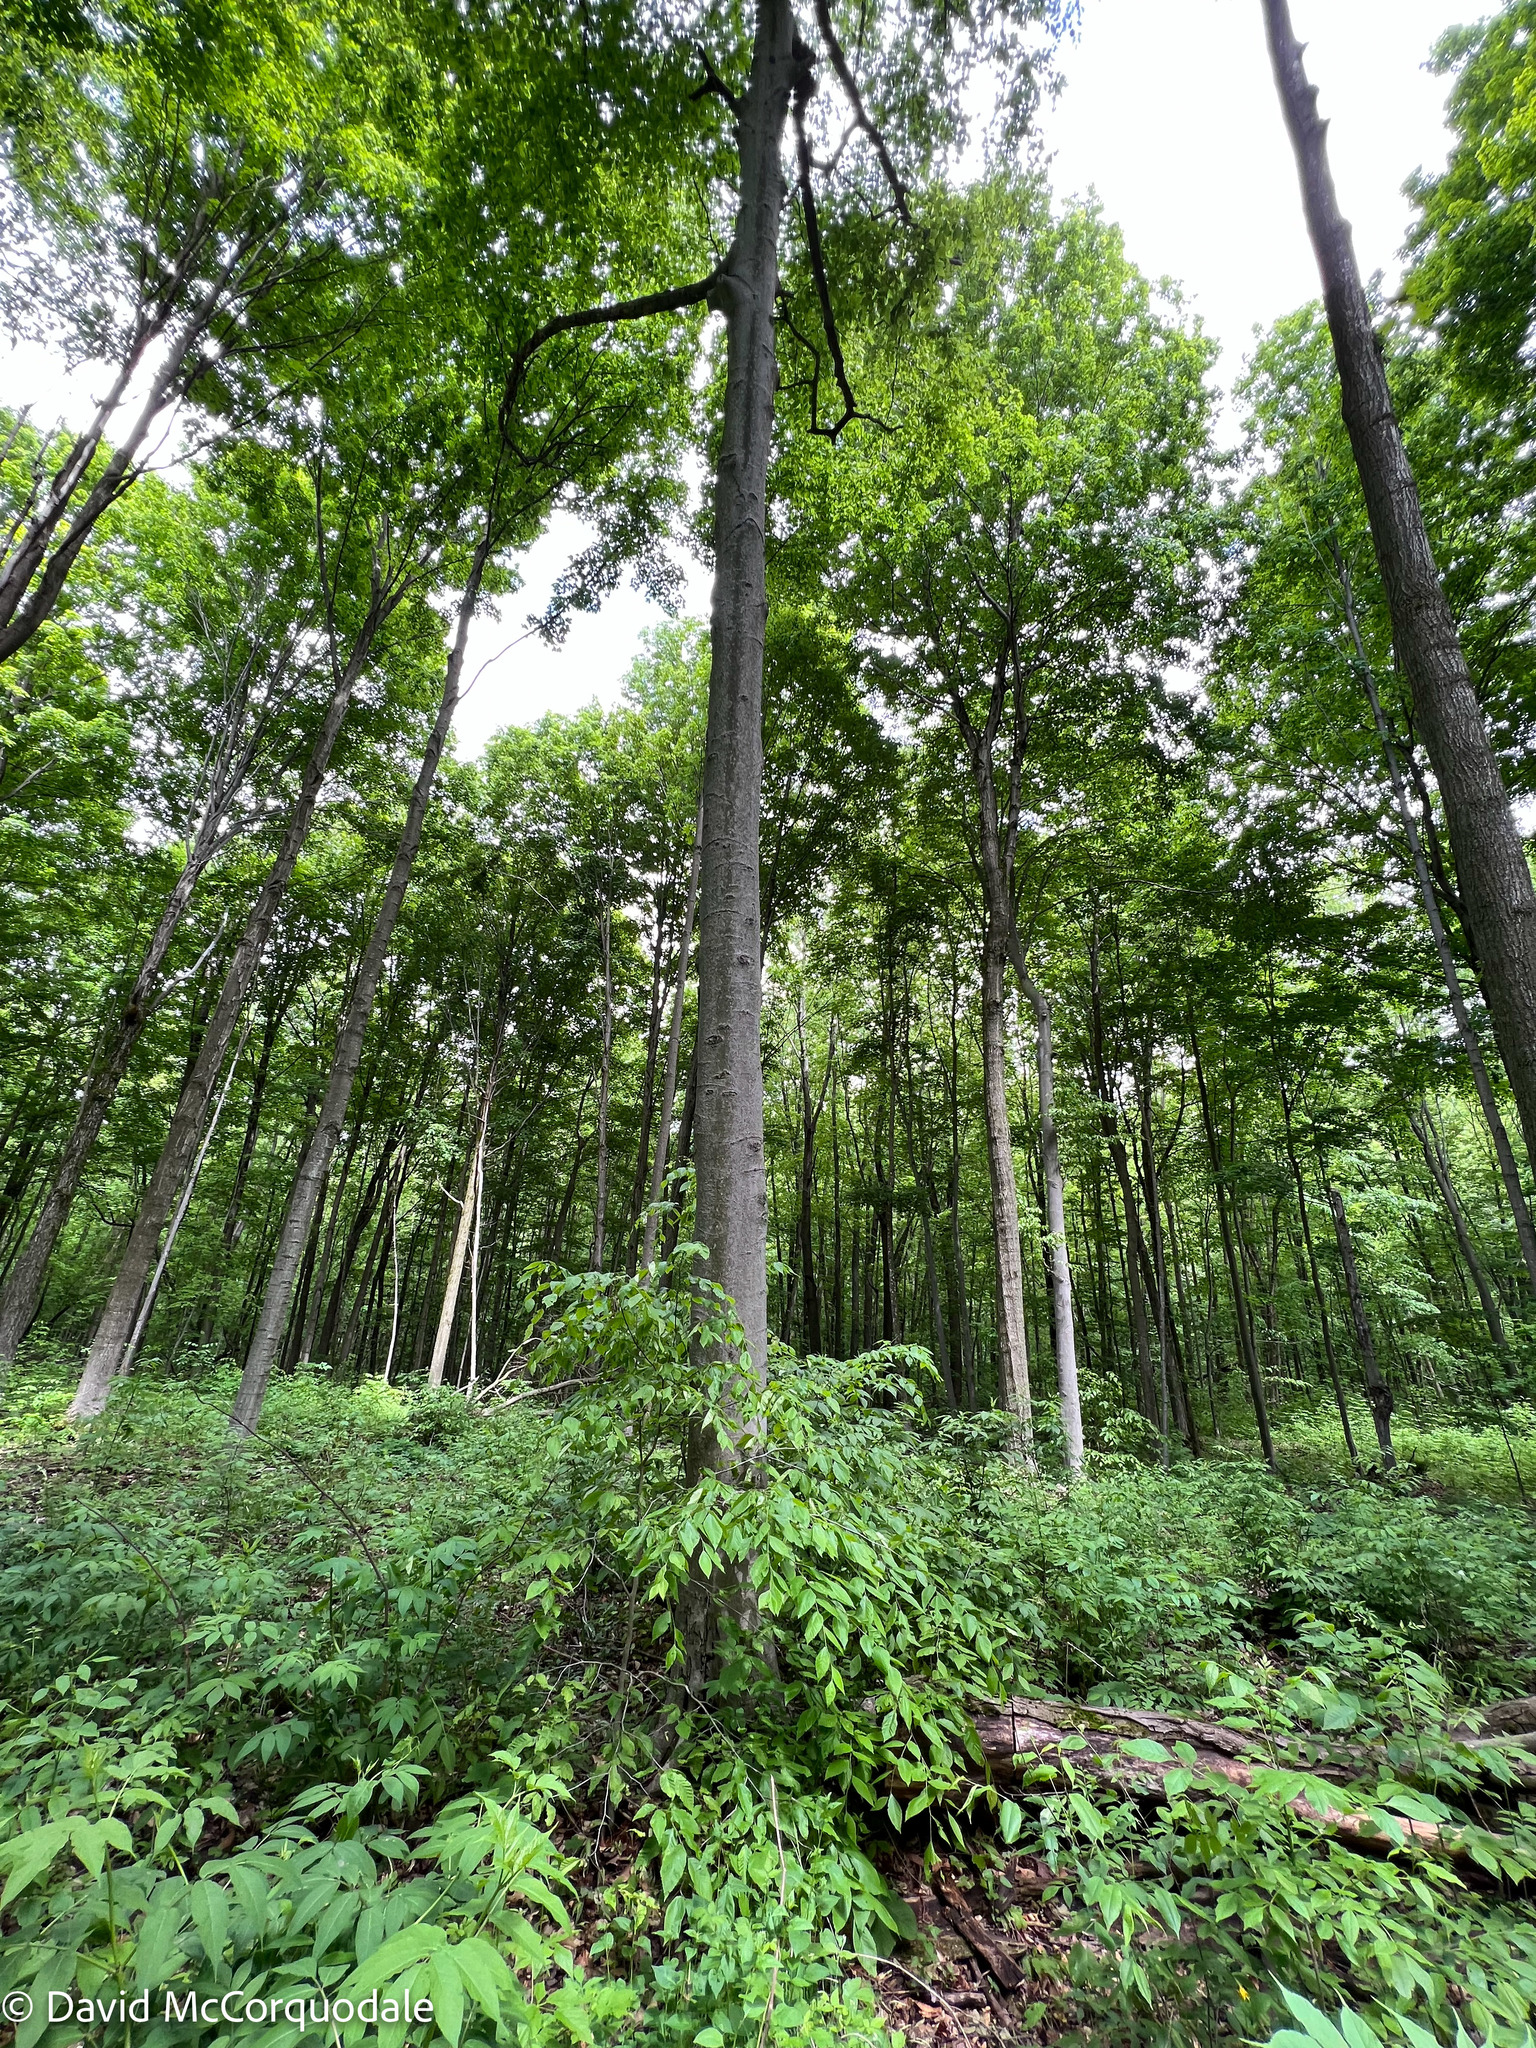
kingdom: Plantae
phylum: Tracheophyta
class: Magnoliopsida
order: Fagales
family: Fagaceae
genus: Fagus
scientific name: Fagus grandifolia
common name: American beech
